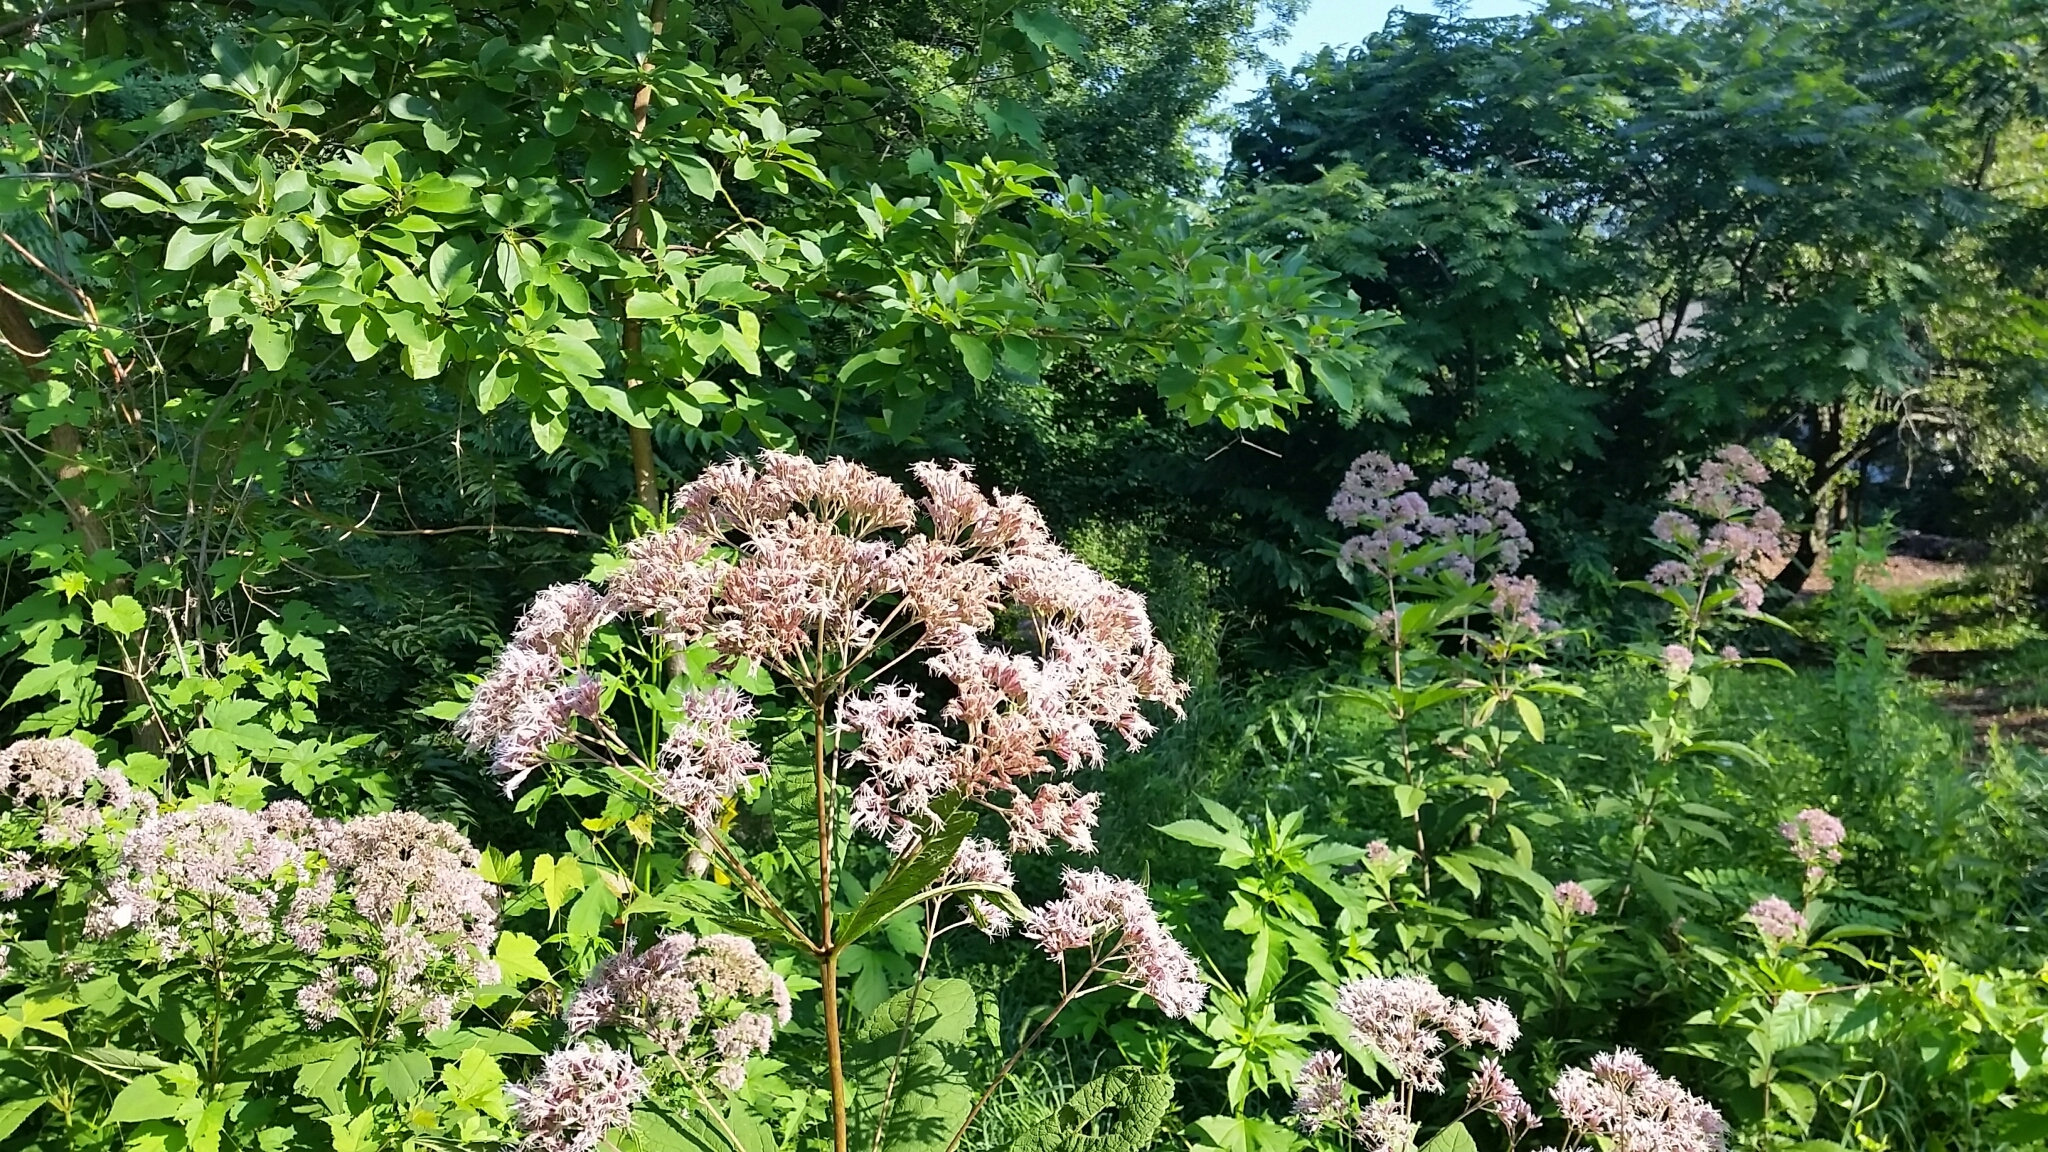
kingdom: Plantae
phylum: Tracheophyta
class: Magnoliopsida
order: Asterales
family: Asteraceae
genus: Eutrochium
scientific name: Eutrochium fistulosum
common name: Trumpetweed
